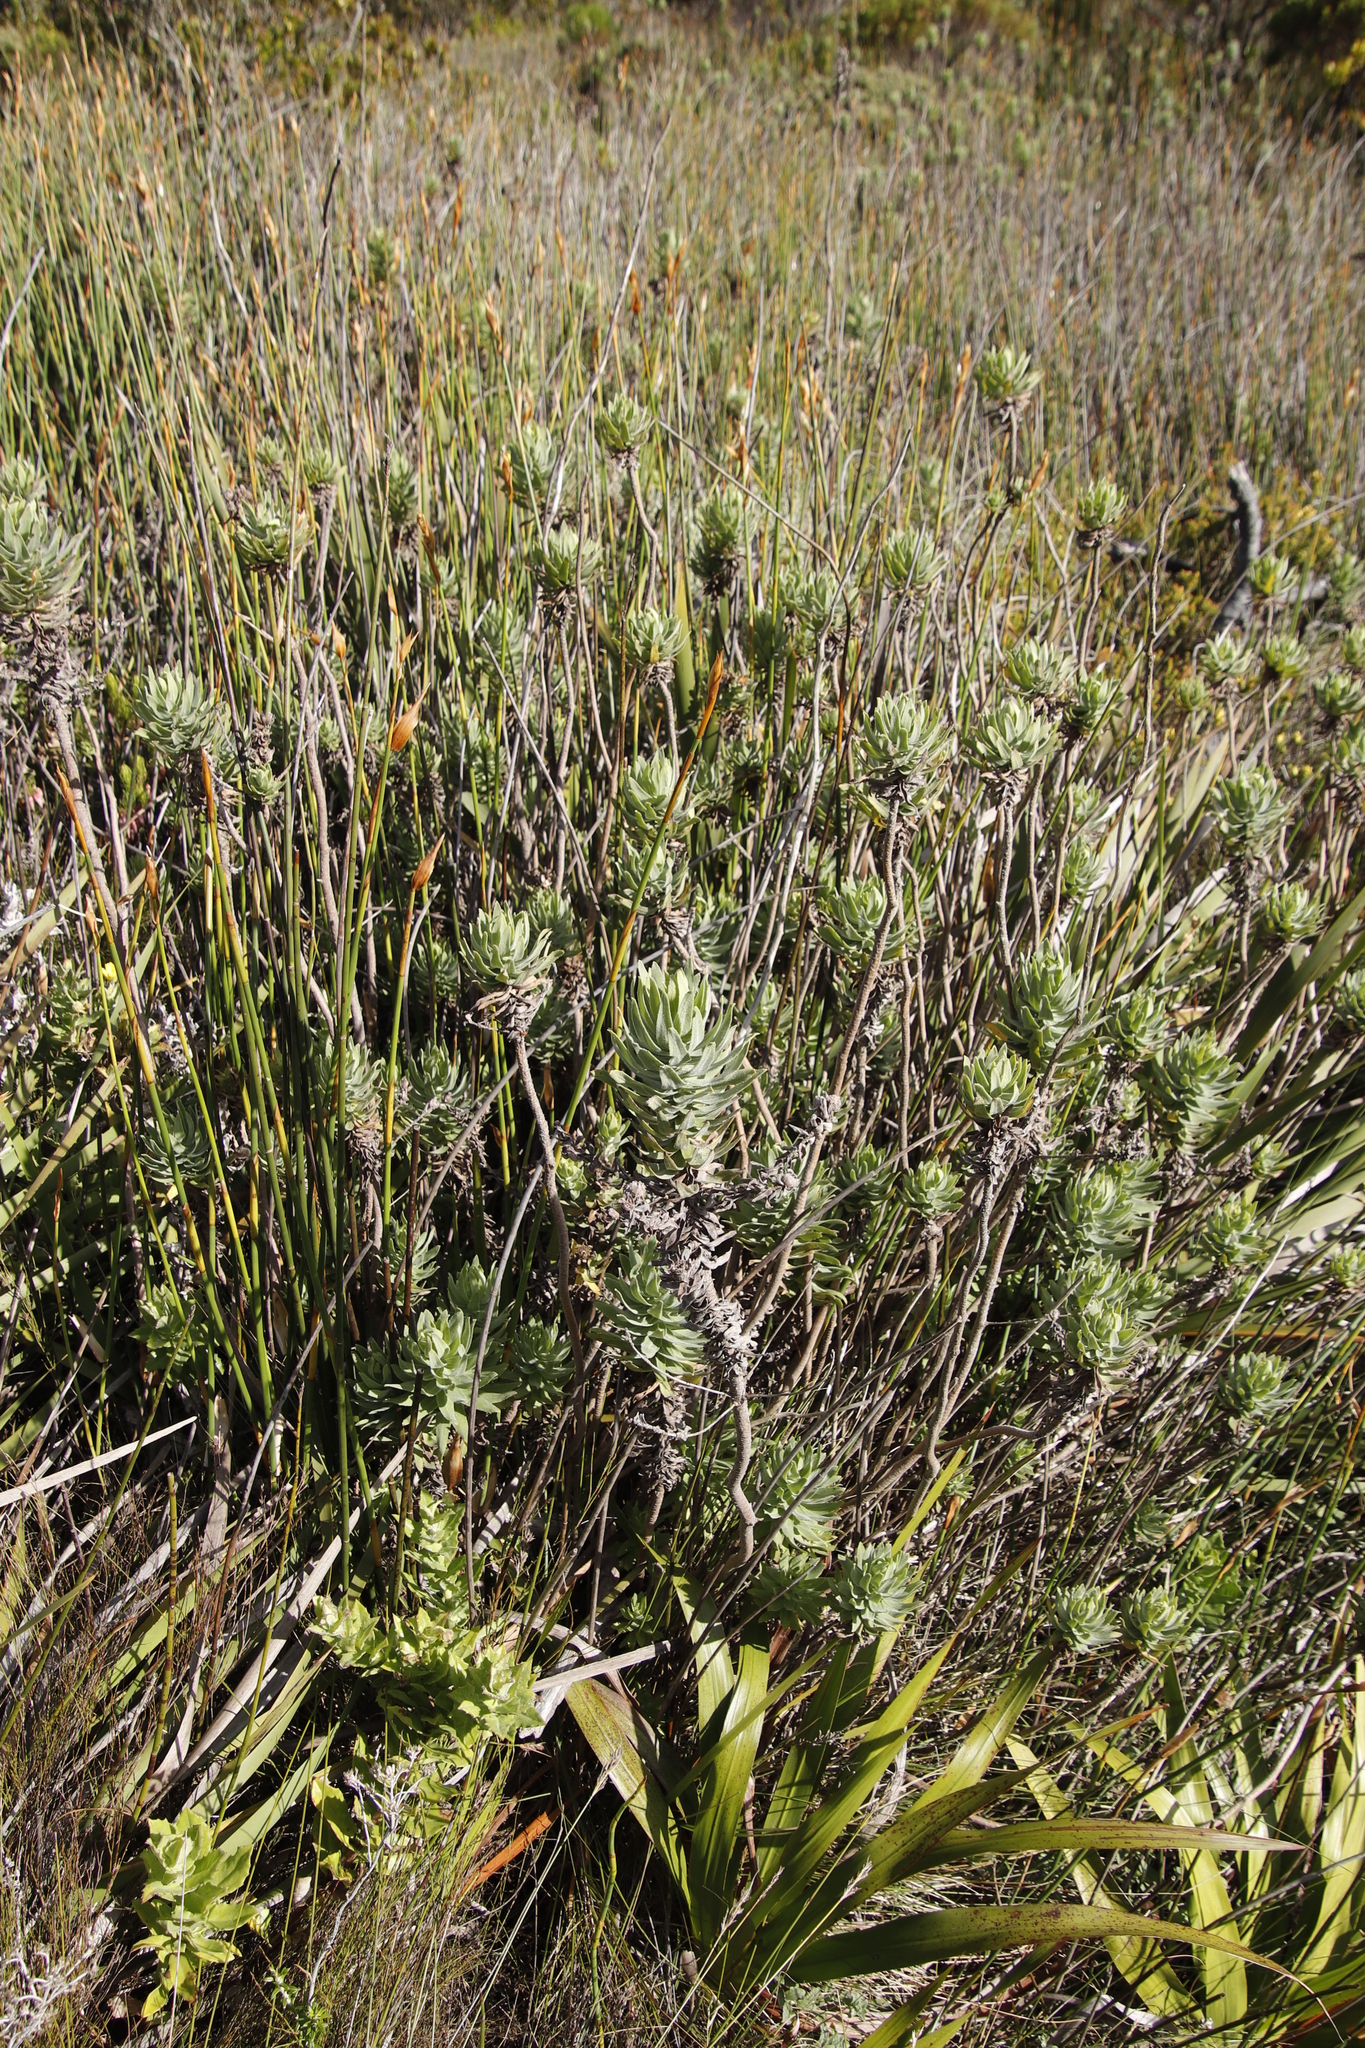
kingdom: Plantae
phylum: Tracheophyta
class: Magnoliopsida
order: Asterales
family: Asteraceae
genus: Osmitopsis
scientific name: Osmitopsis asteriscoides
